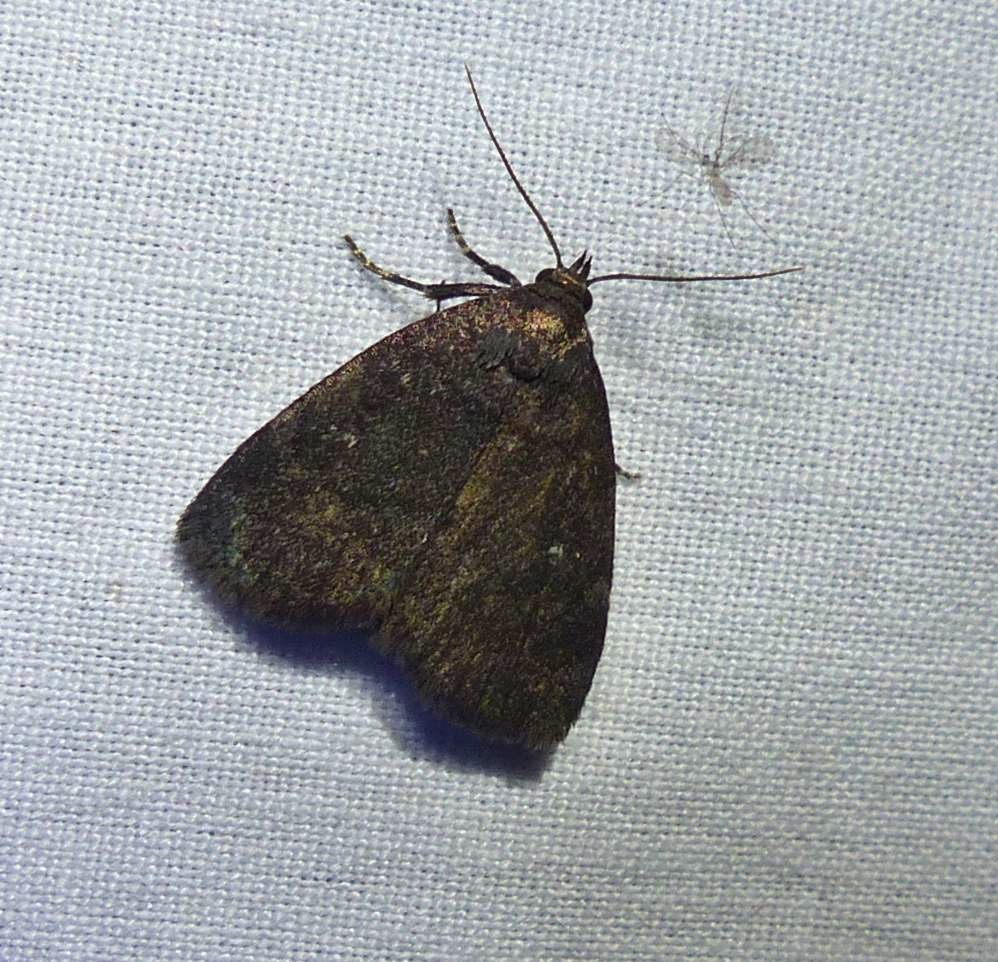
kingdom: Animalia
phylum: Arthropoda
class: Insecta
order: Lepidoptera
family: Erebidae
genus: Idia
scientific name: Idia rotundalis
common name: Rotund idia moth
